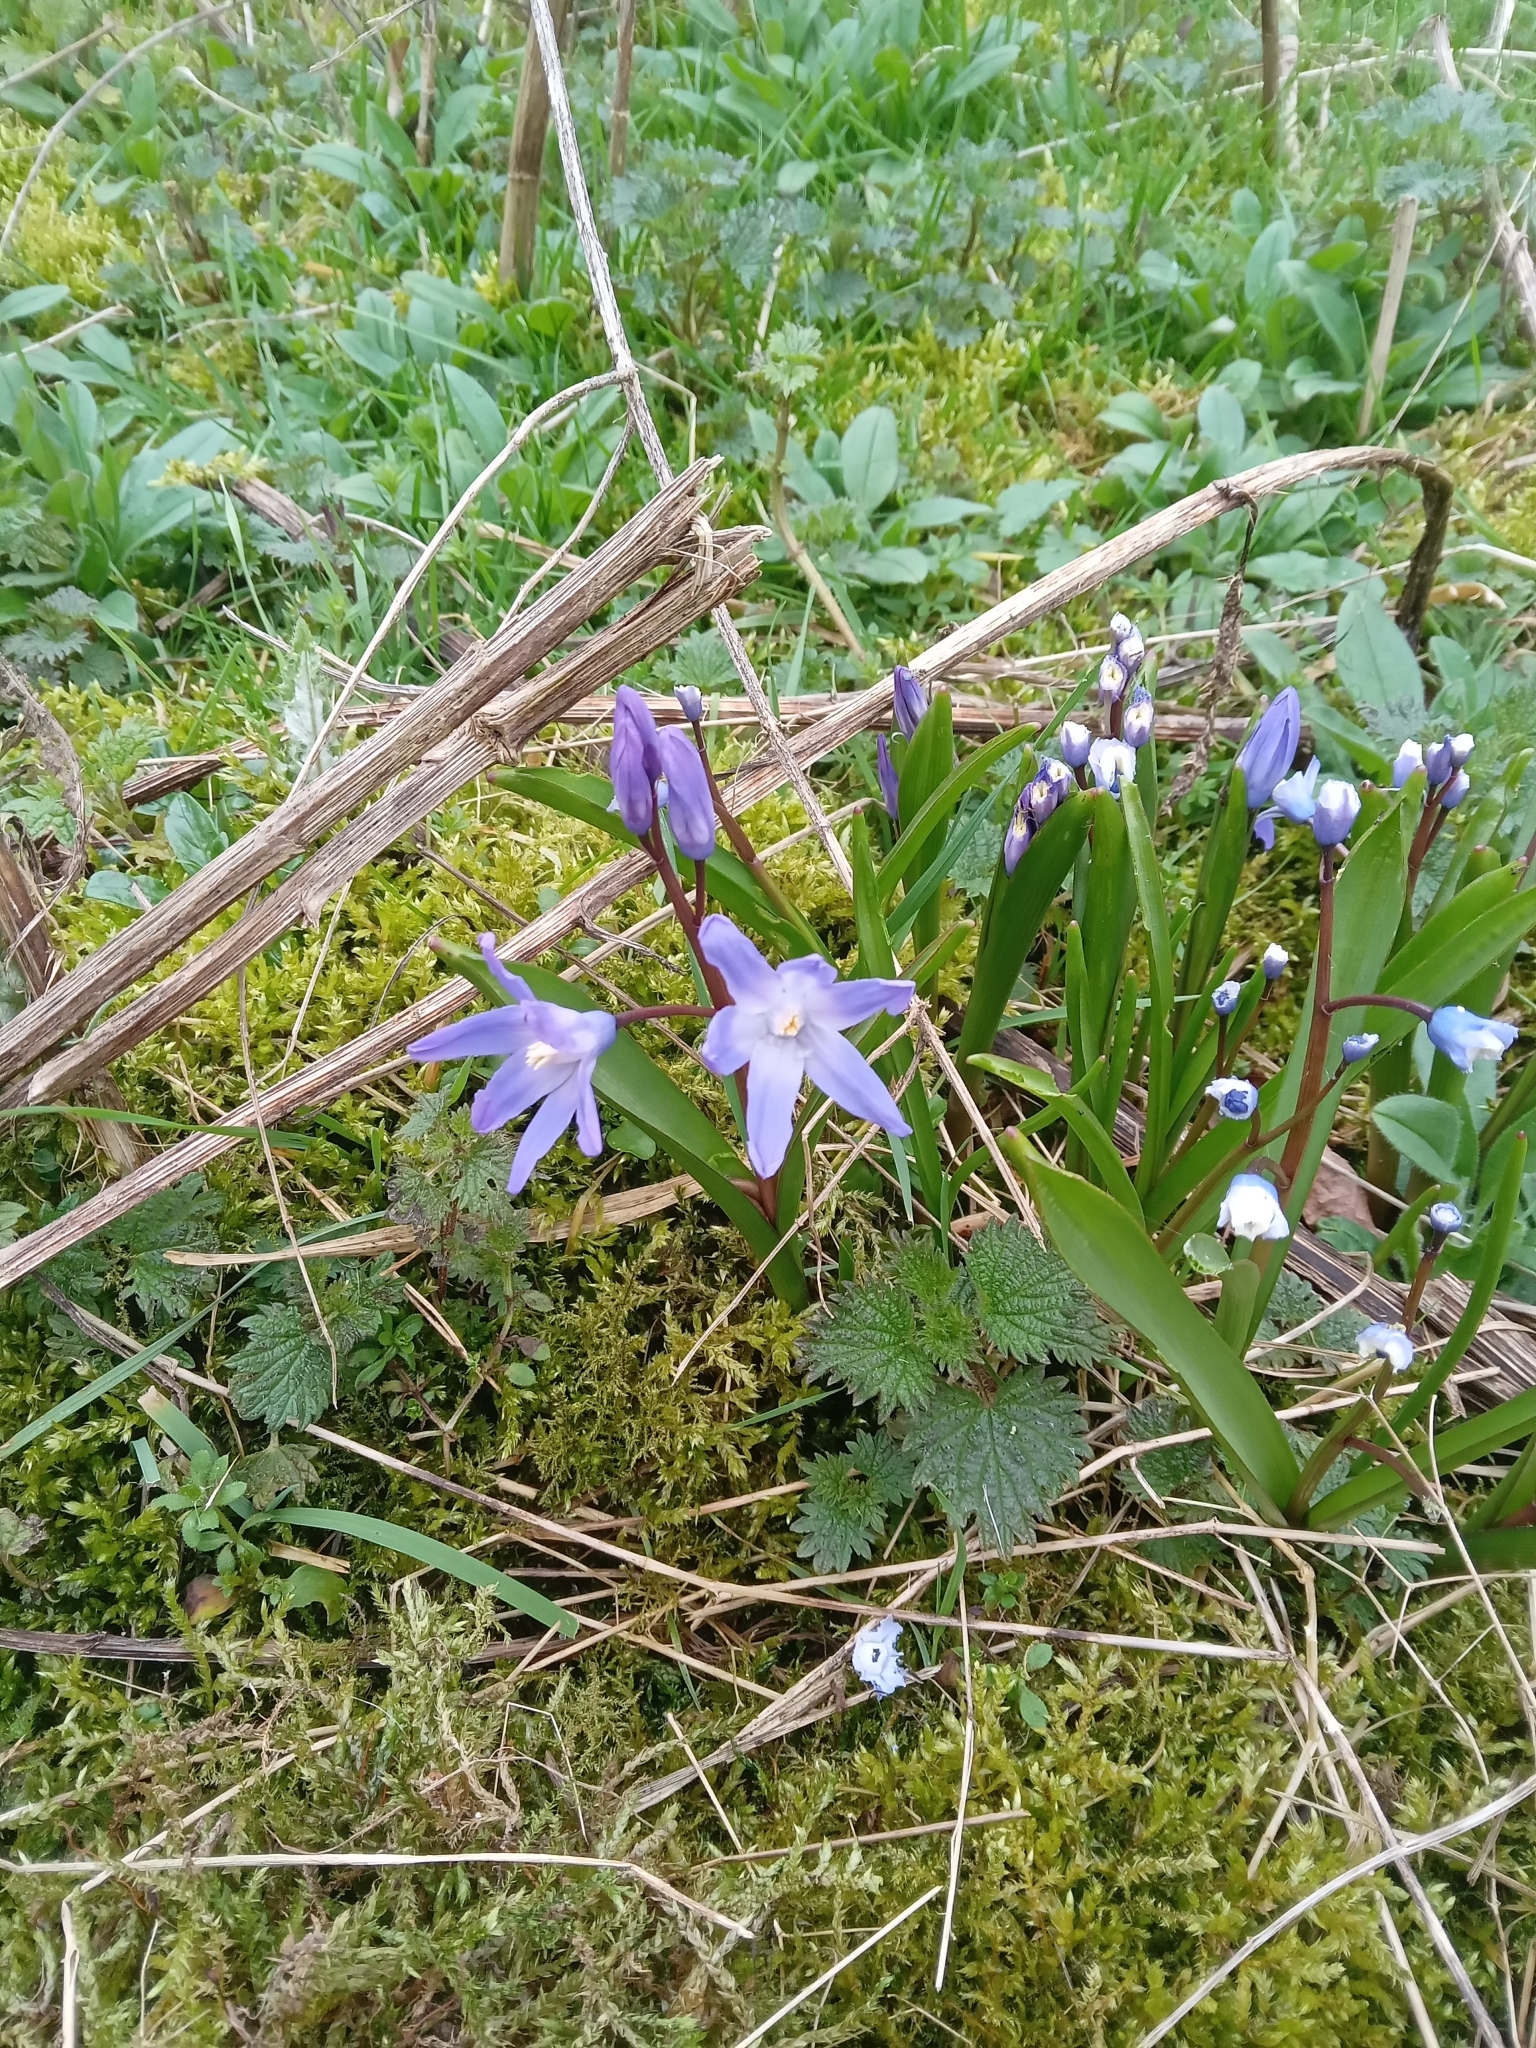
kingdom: Plantae
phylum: Tracheophyta
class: Liliopsida
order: Asparagales
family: Asparagaceae
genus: Scilla
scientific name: Scilla forbesii
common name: Glory-of-the-snow
